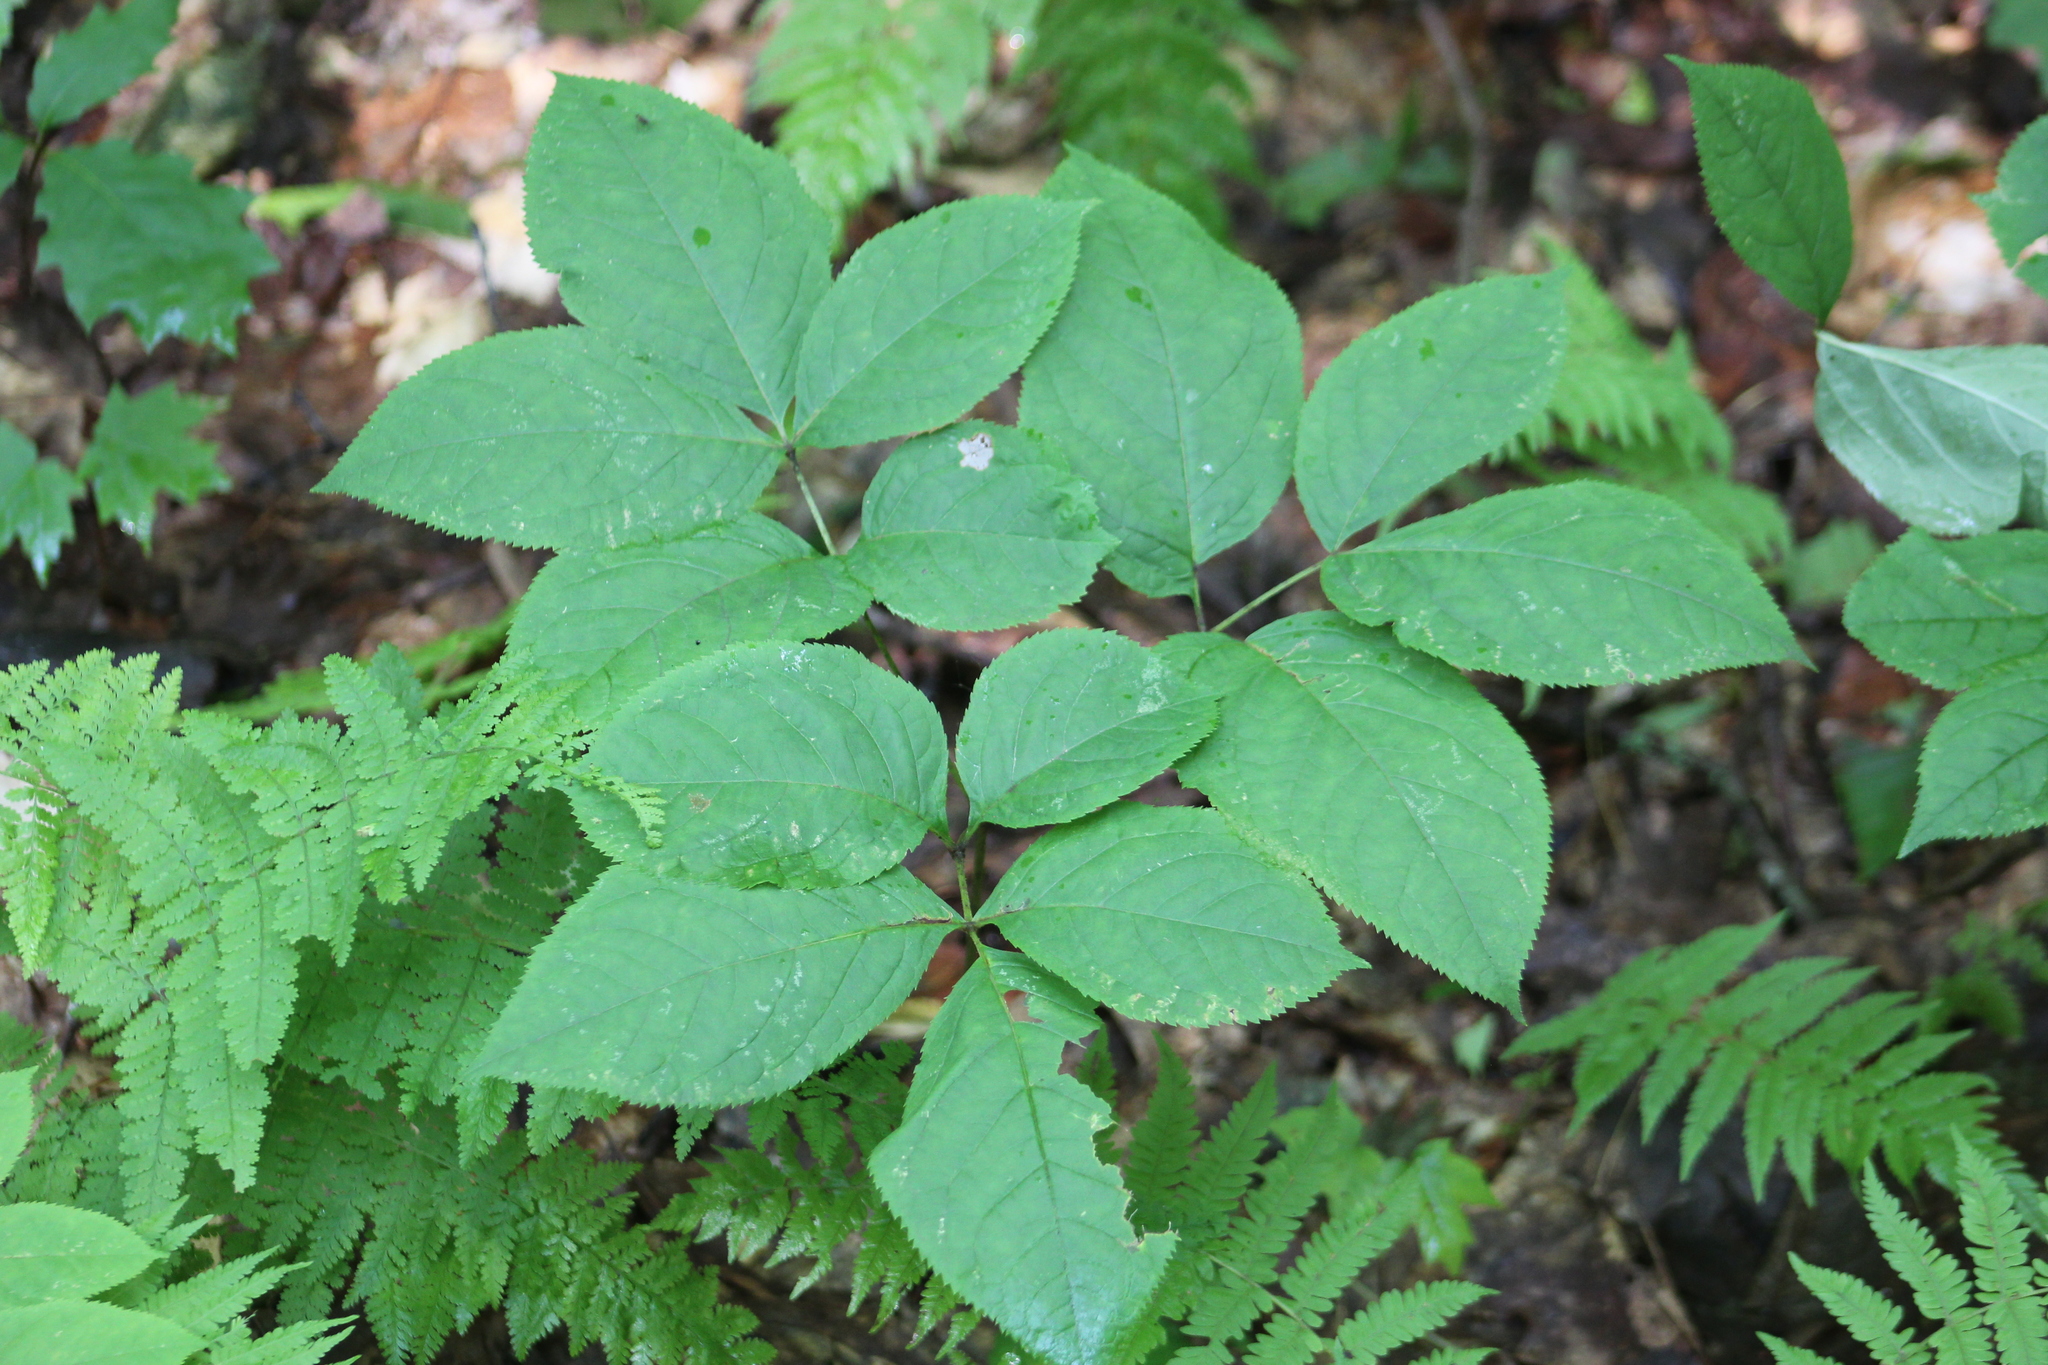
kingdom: Plantae
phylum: Tracheophyta
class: Magnoliopsida
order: Apiales
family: Araliaceae
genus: Aralia
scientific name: Aralia nudicaulis
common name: Wild sarsaparilla
